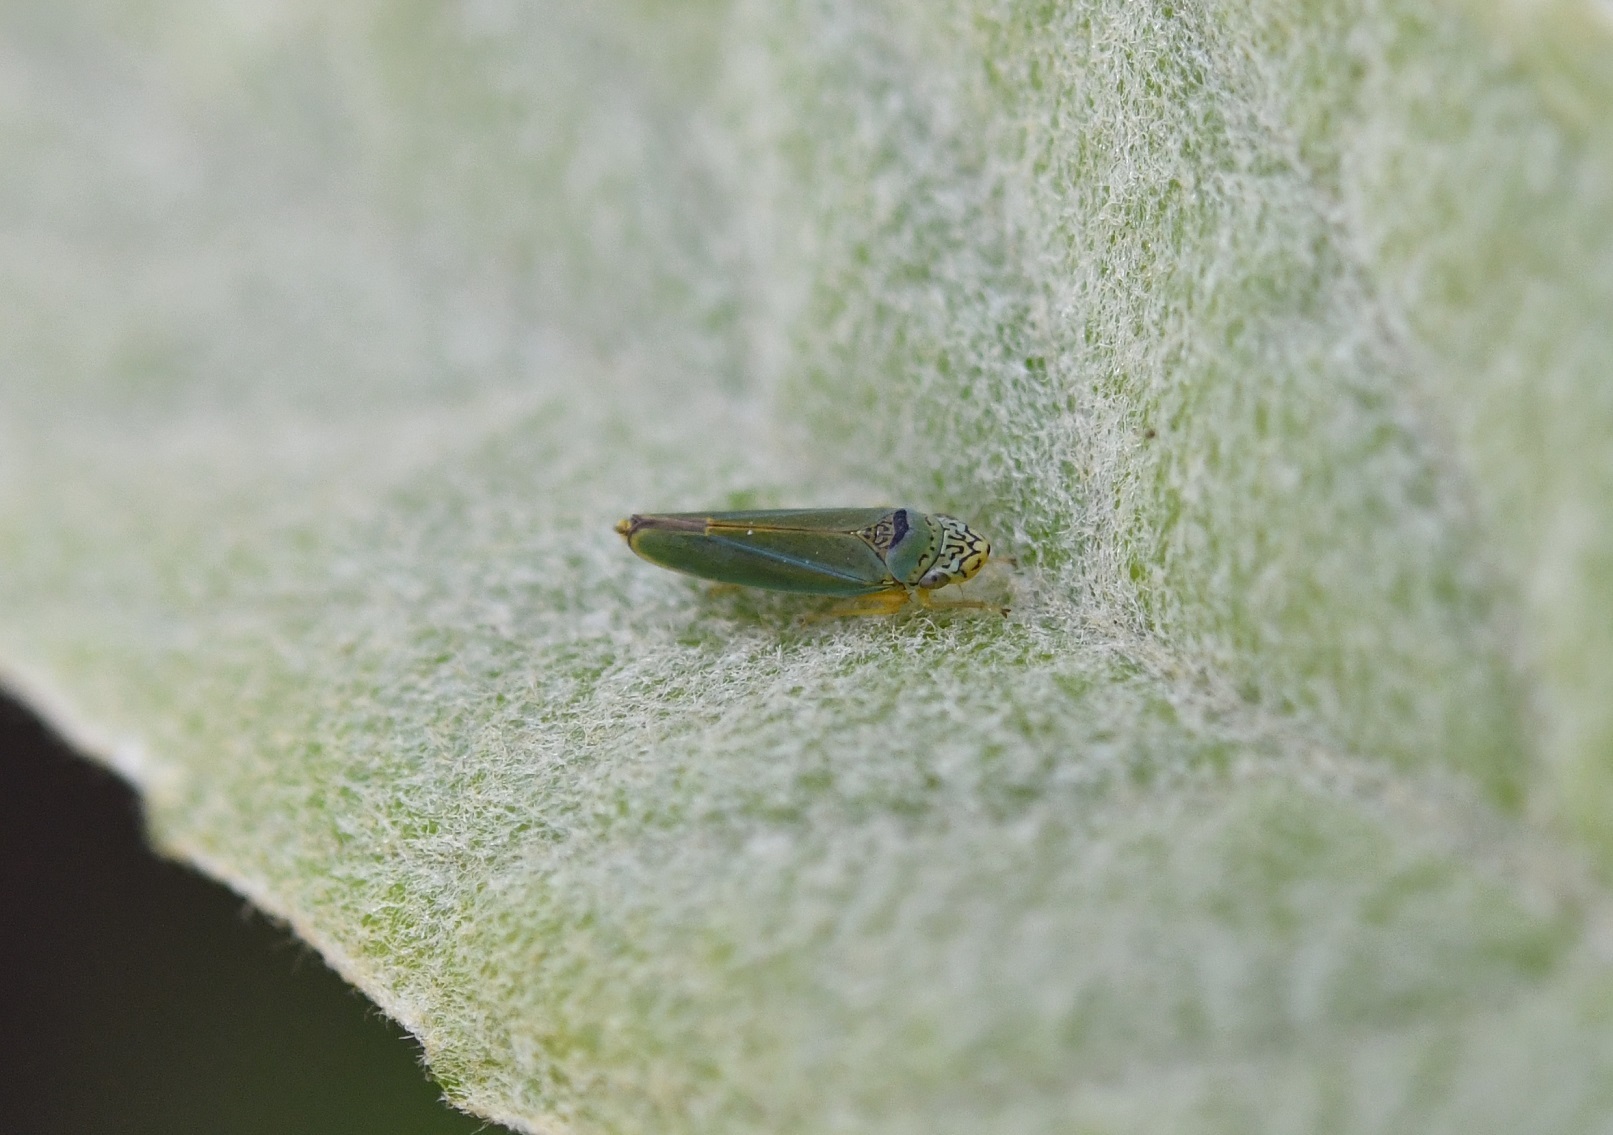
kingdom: Animalia
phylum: Arthropoda
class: Insecta
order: Hemiptera
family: Cicadellidae
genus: Isogonalia
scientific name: Isogonalia labyrinthica
